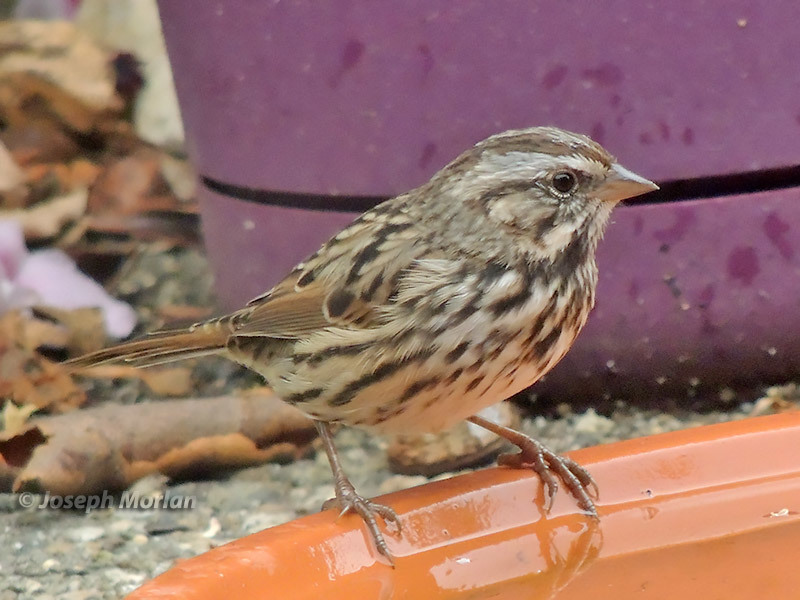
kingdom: Animalia
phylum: Chordata
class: Aves
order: Passeriformes
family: Passerellidae
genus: Melospiza
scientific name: Melospiza melodia
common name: Song sparrow
